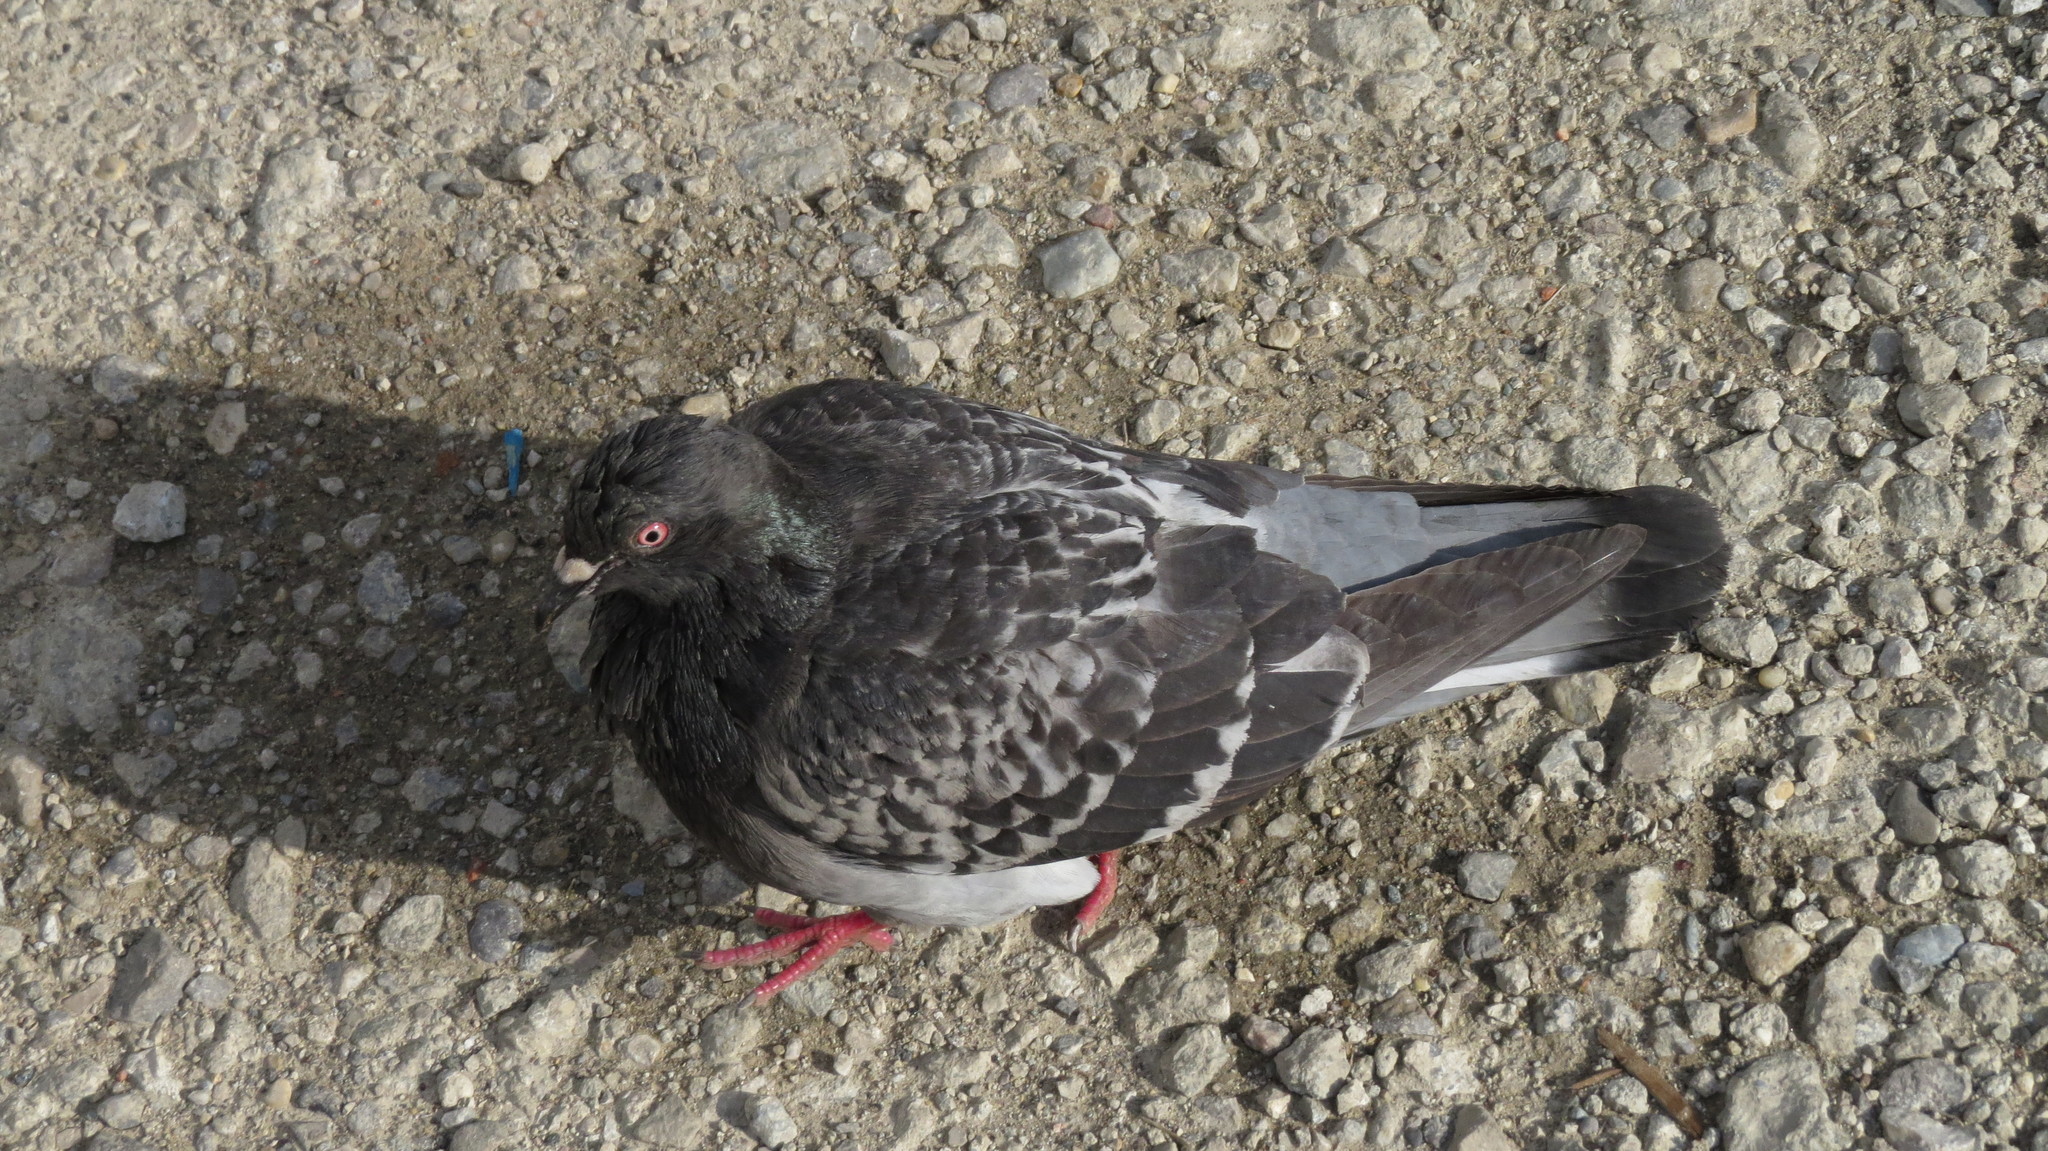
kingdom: Animalia
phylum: Chordata
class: Aves
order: Columbiformes
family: Columbidae
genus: Columba
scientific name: Columba livia
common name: Rock pigeon
